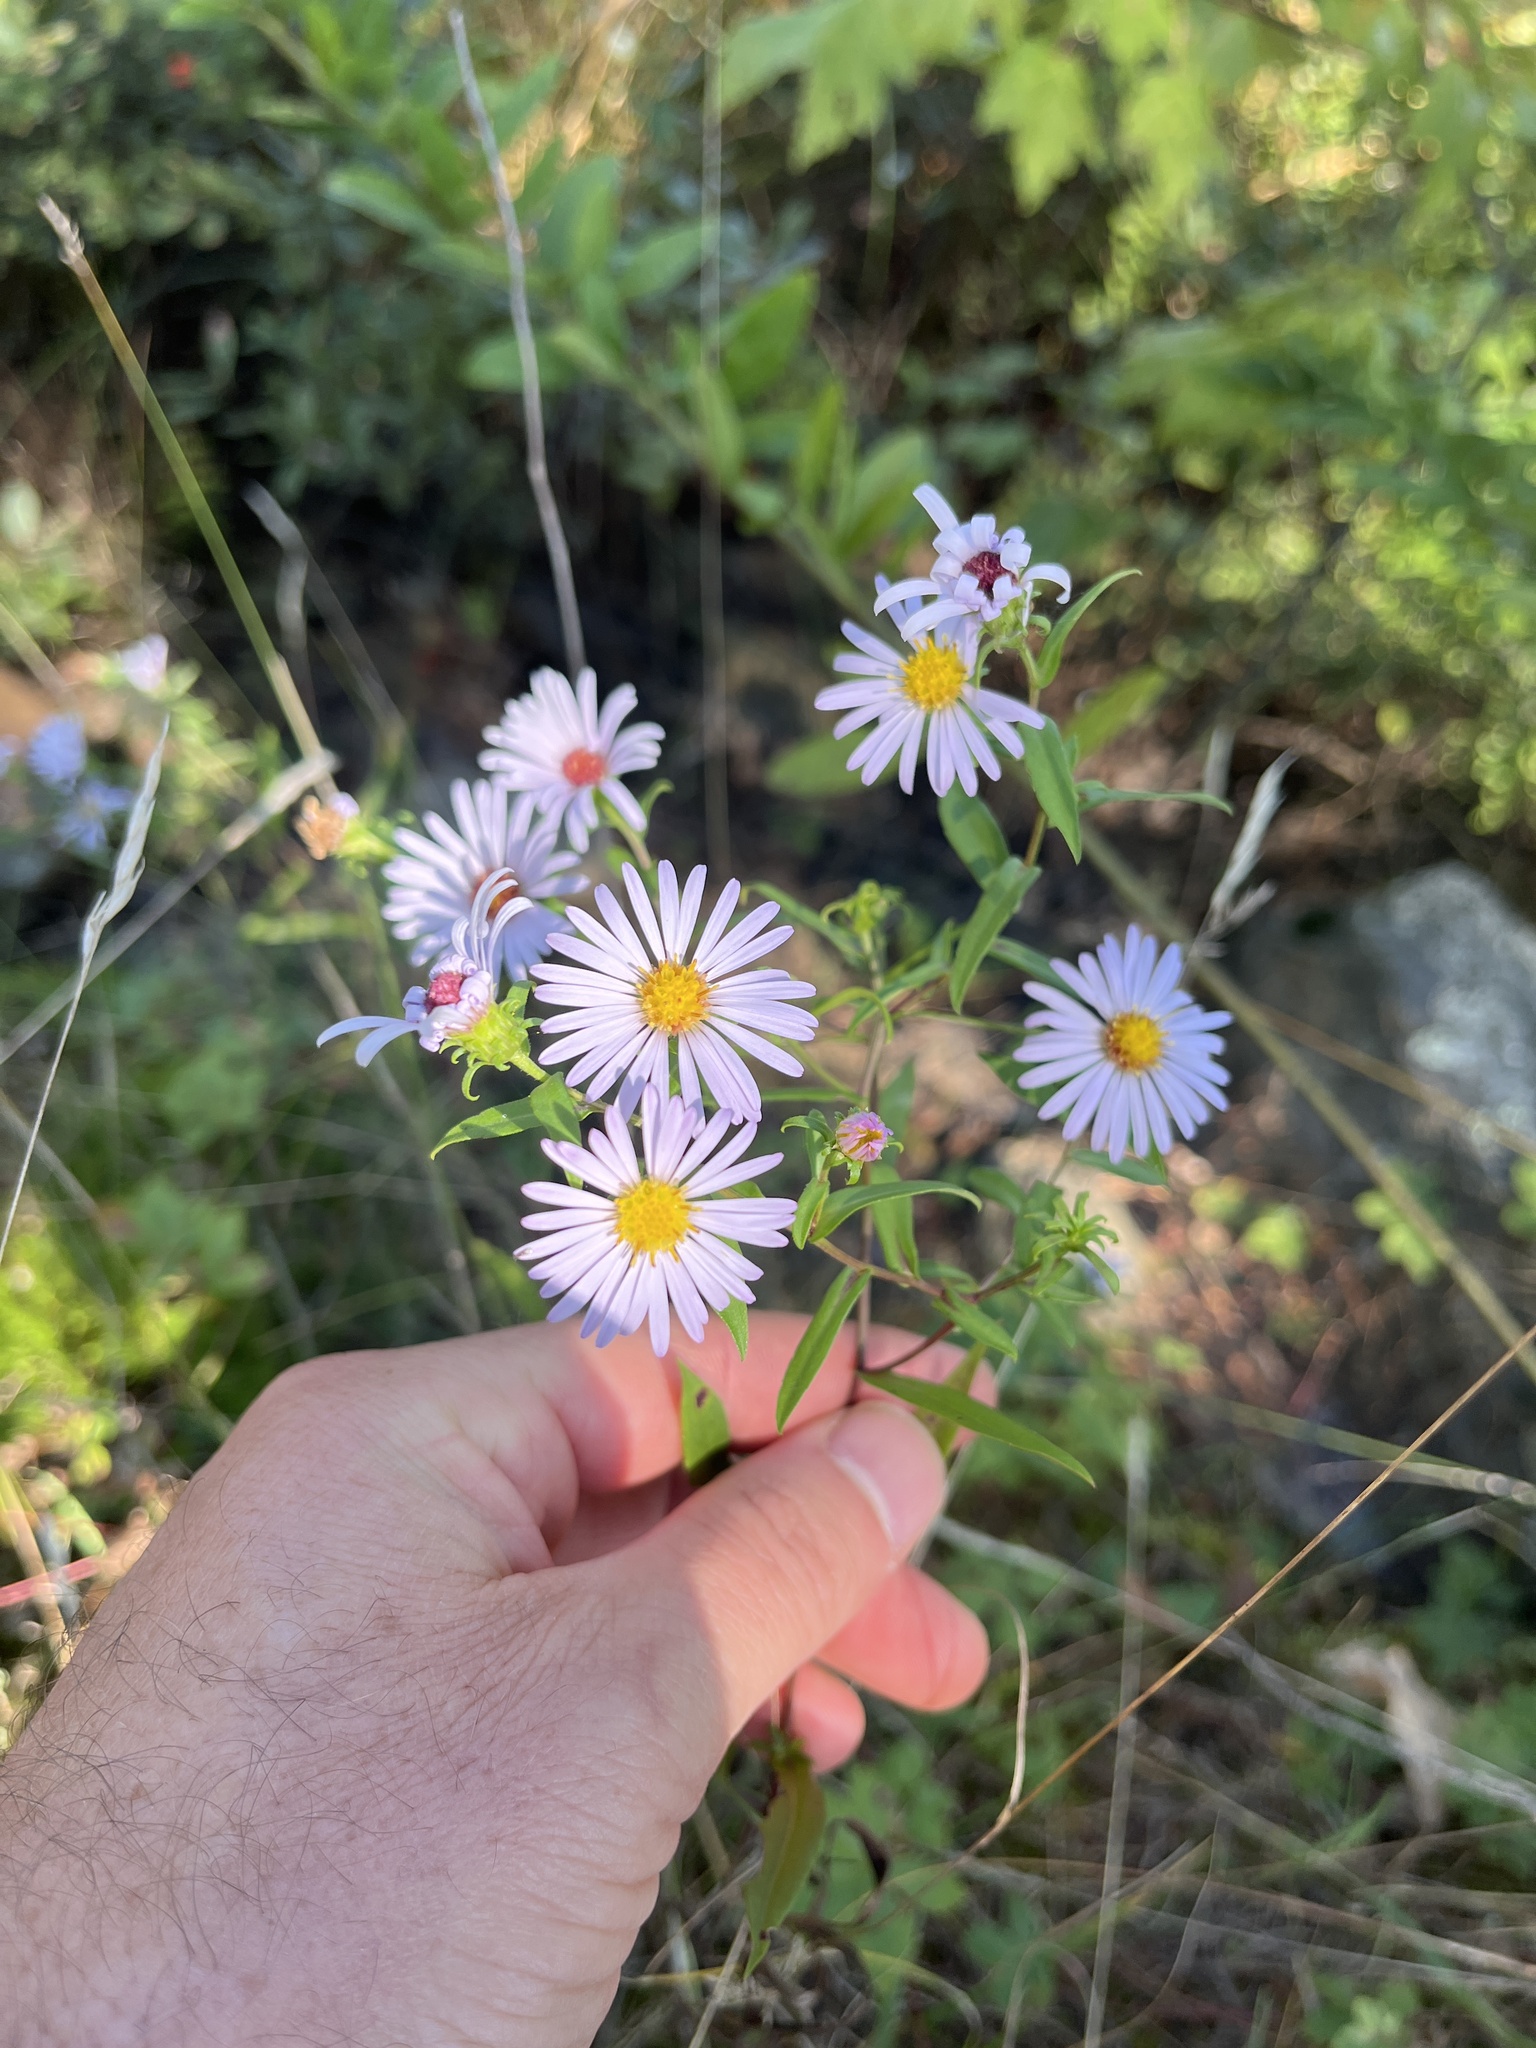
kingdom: Plantae
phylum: Tracheophyta
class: Magnoliopsida
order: Asterales
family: Asteraceae
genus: Symphyotrichum
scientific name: Symphyotrichum puniceum
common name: Bog aster
